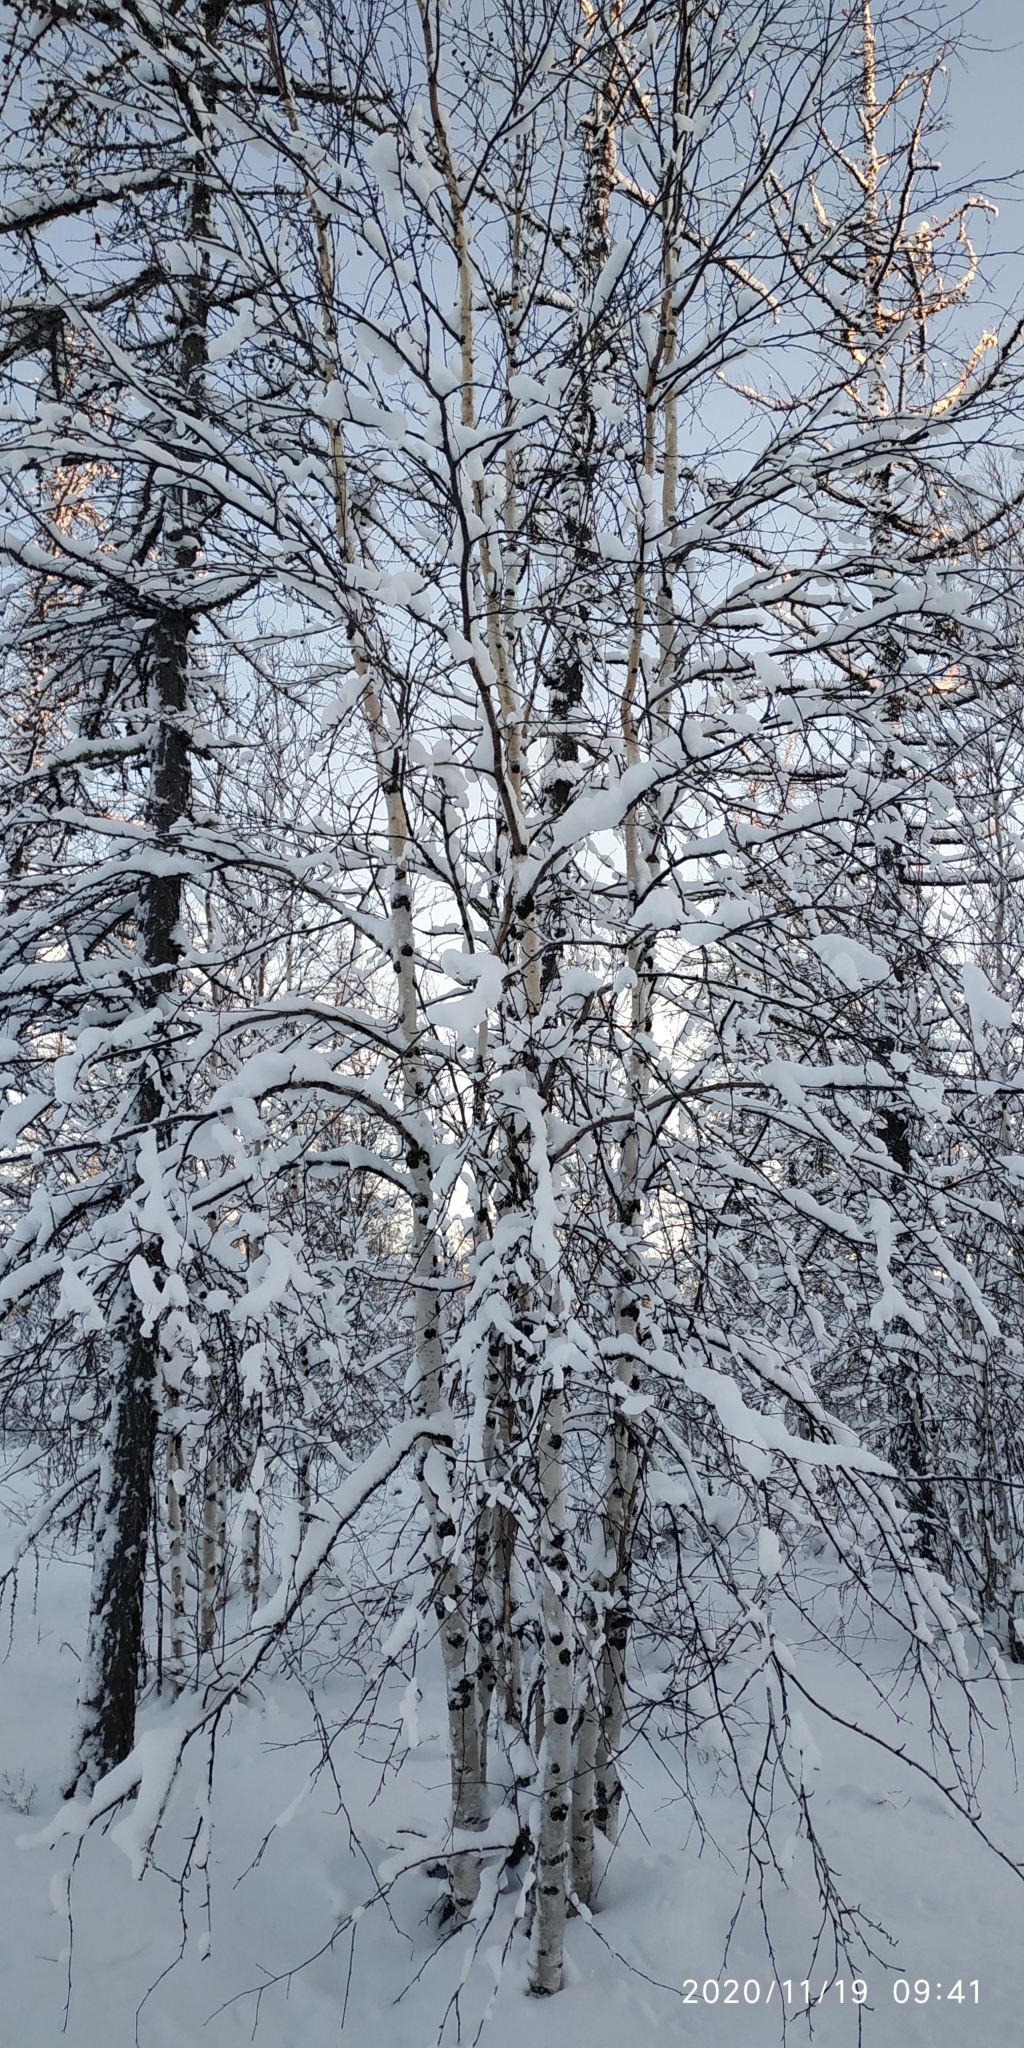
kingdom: Plantae
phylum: Tracheophyta
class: Magnoliopsida
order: Fagales
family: Betulaceae
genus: Betula
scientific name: Betula pubescens
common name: Downy birch
